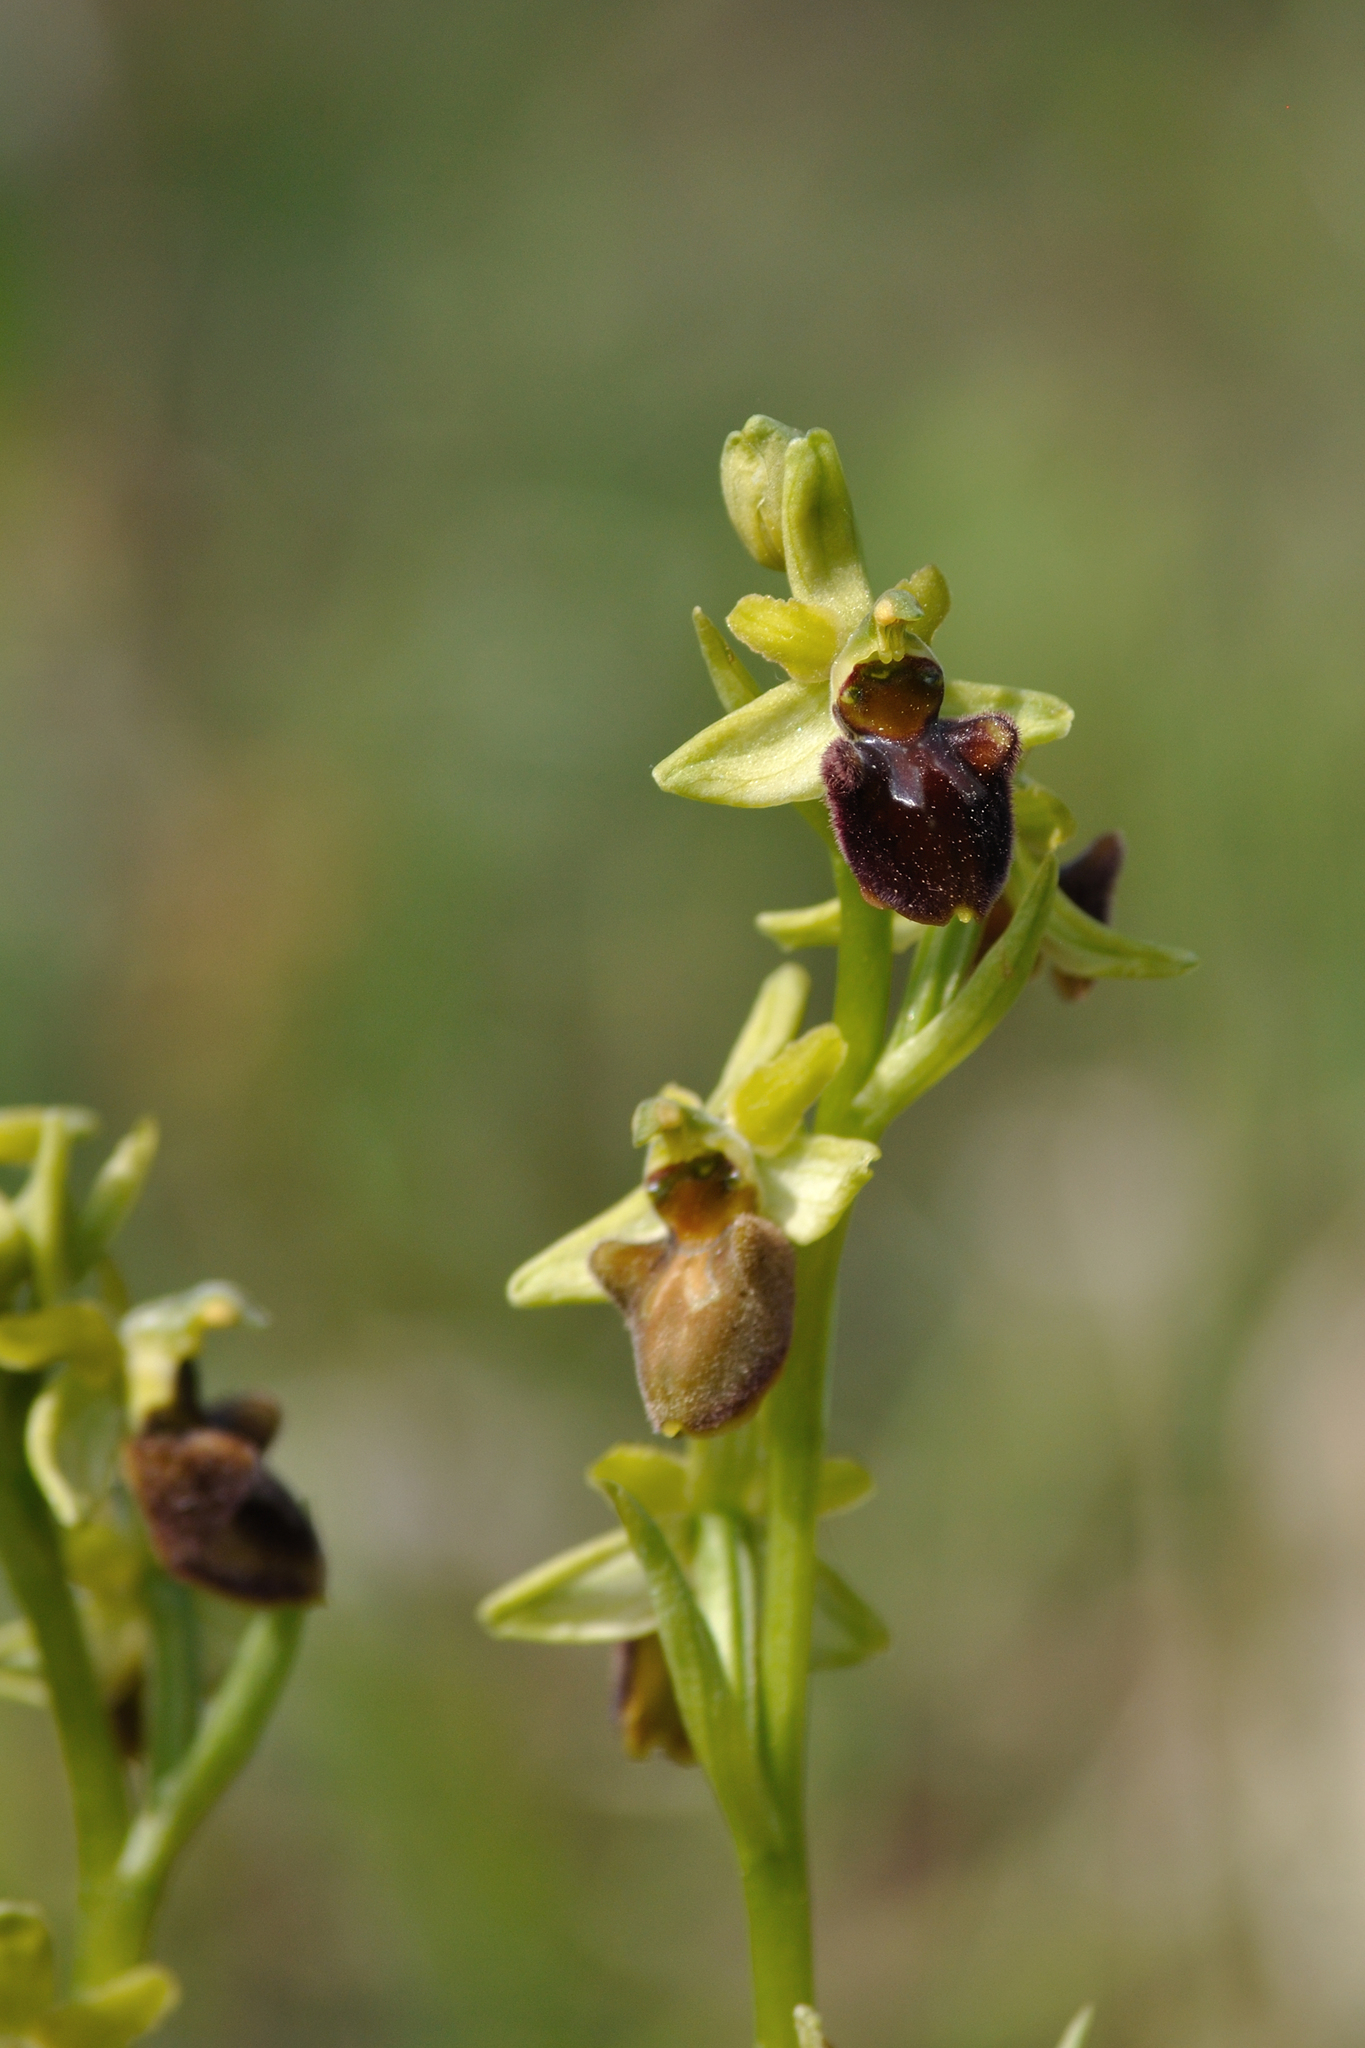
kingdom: Plantae
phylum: Tracheophyta
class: Liliopsida
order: Asparagales
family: Orchidaceae
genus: Ophrys
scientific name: Ophrys sphegodes
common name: Early spider-orchid
